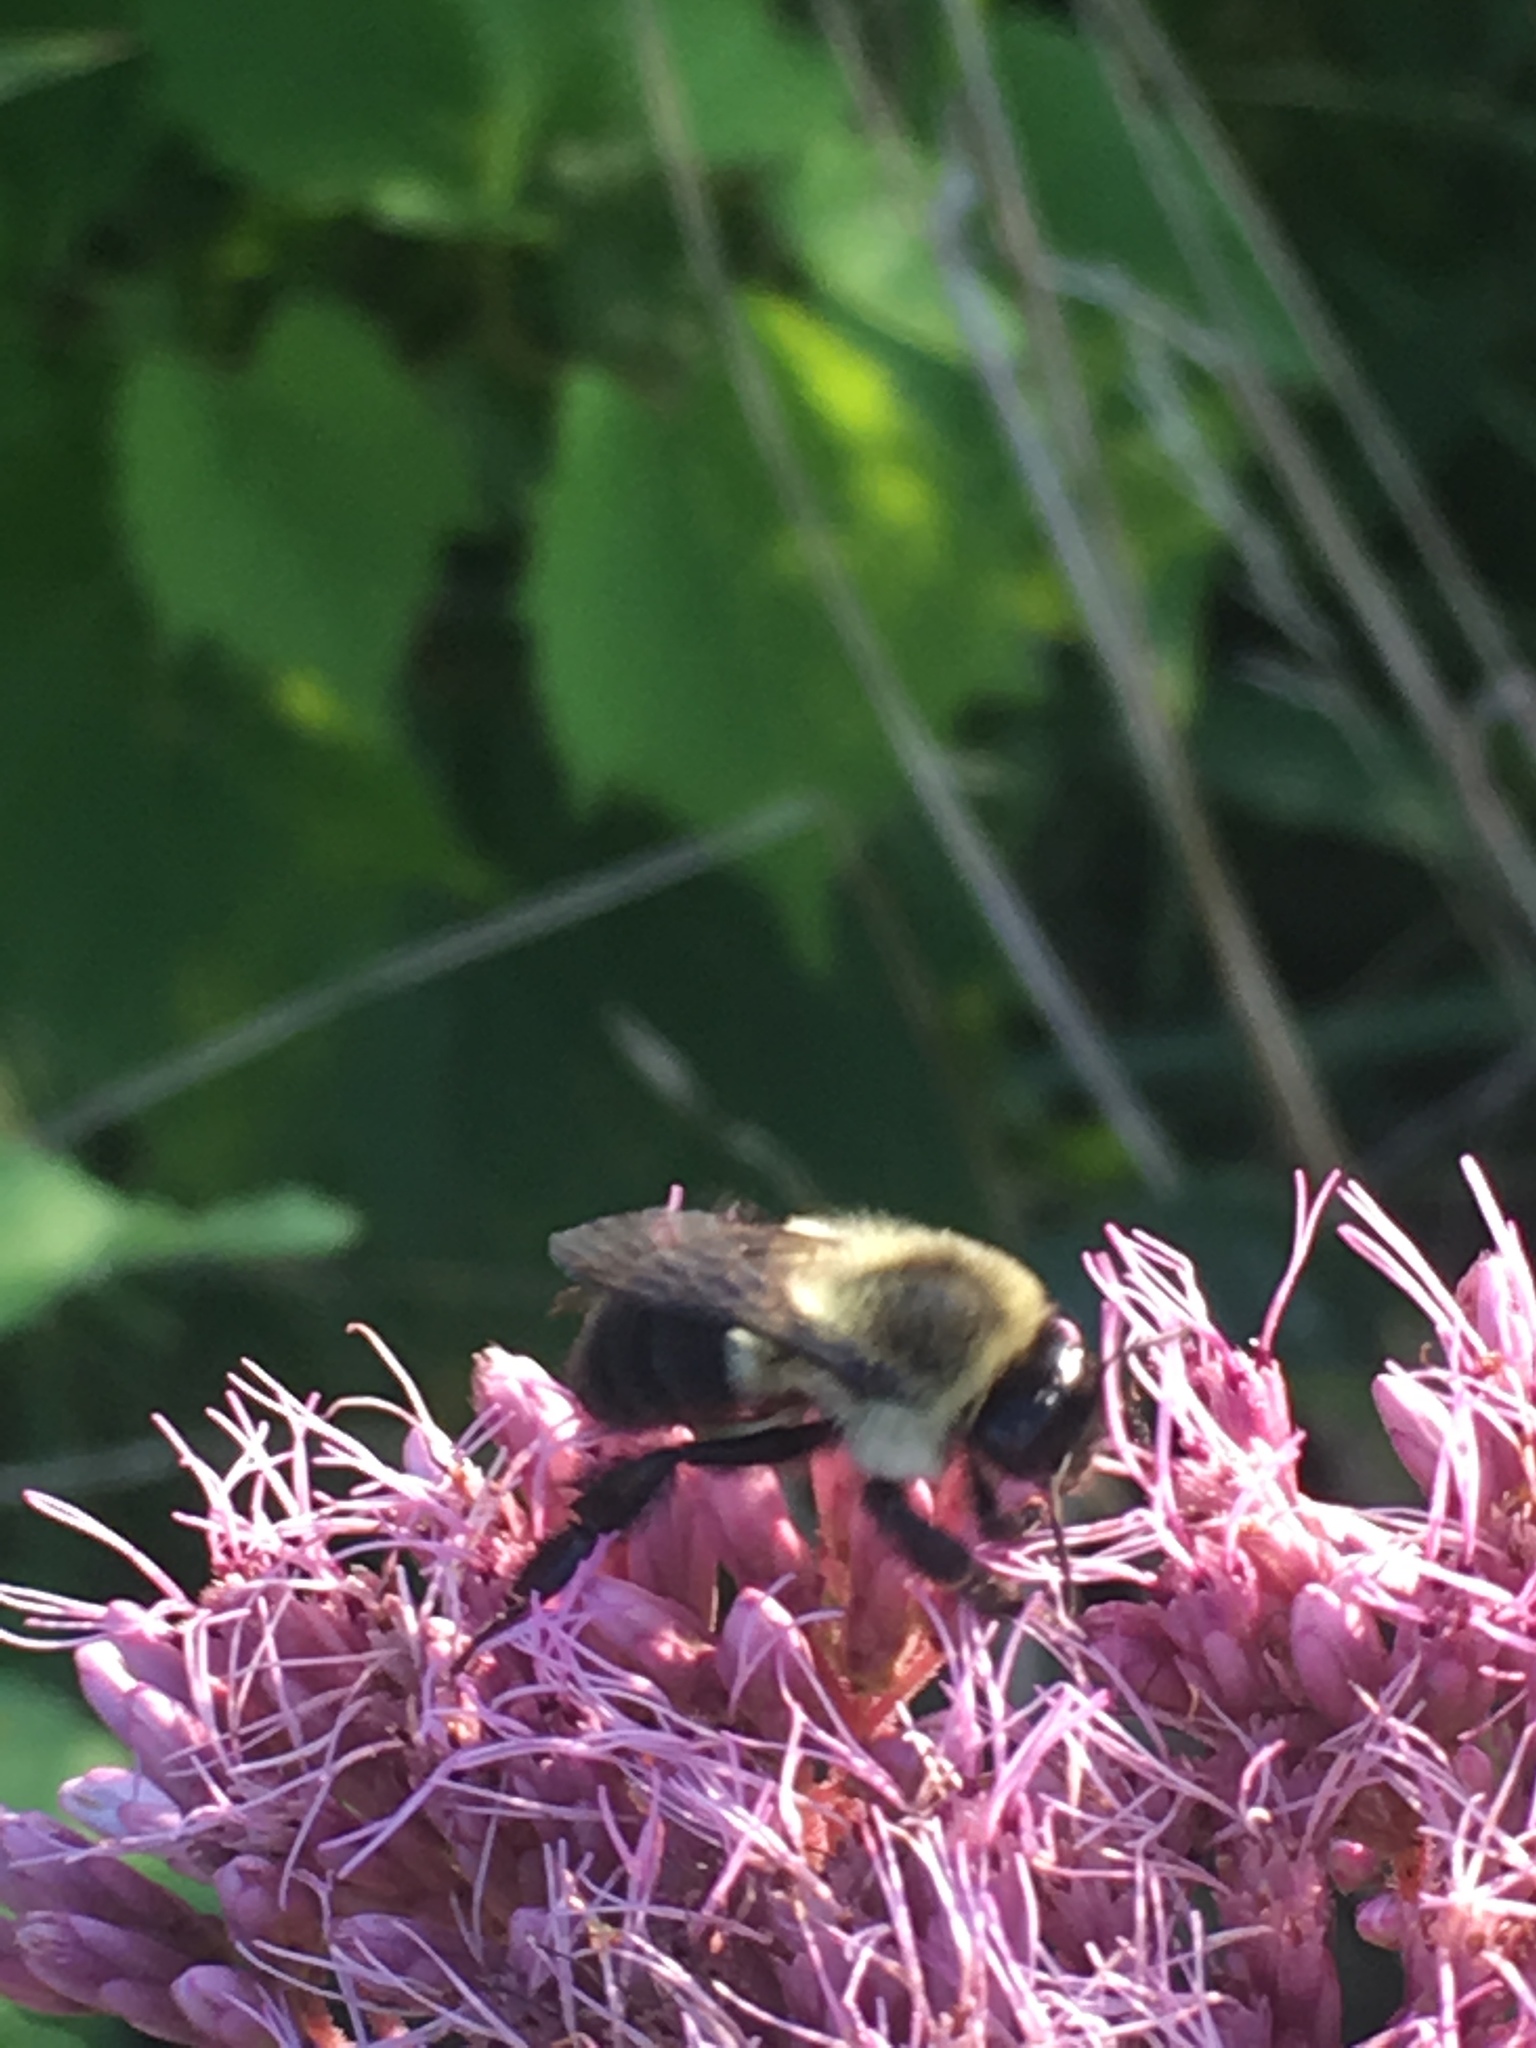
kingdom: Animalia
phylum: Arthropoda
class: Insecta
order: Hymenoptera
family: Apidae
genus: Bombus
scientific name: Bombus impatiens
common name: Common eastern bumble bee
